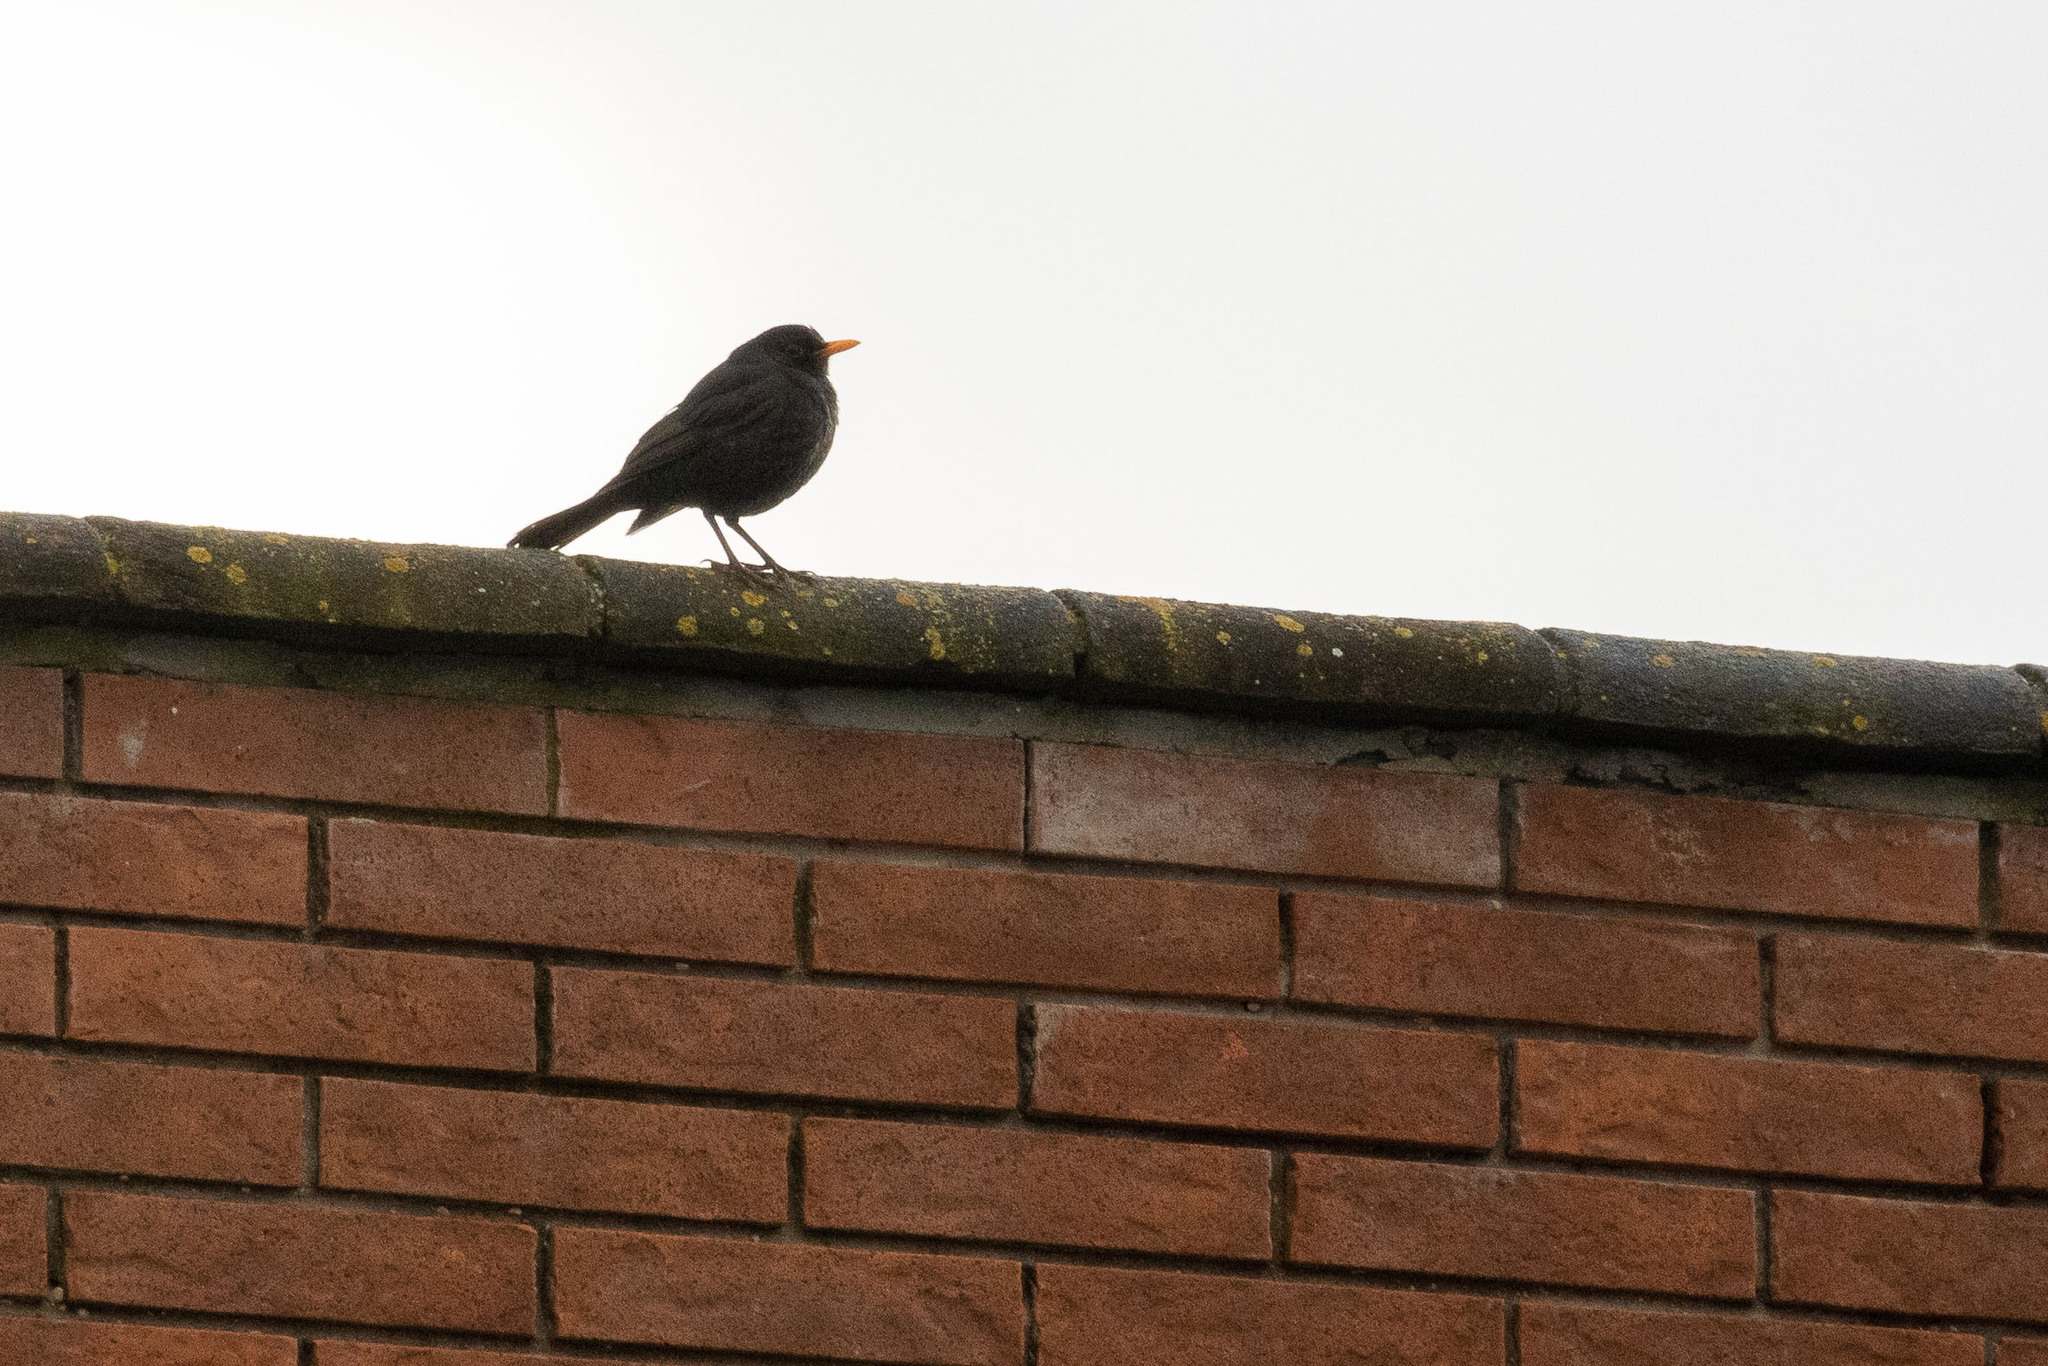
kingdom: Animalia
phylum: Chordata
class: Aves
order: Passeriformes
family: Turdidae
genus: Turdus
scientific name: Turdus merula
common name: Common blackbird
